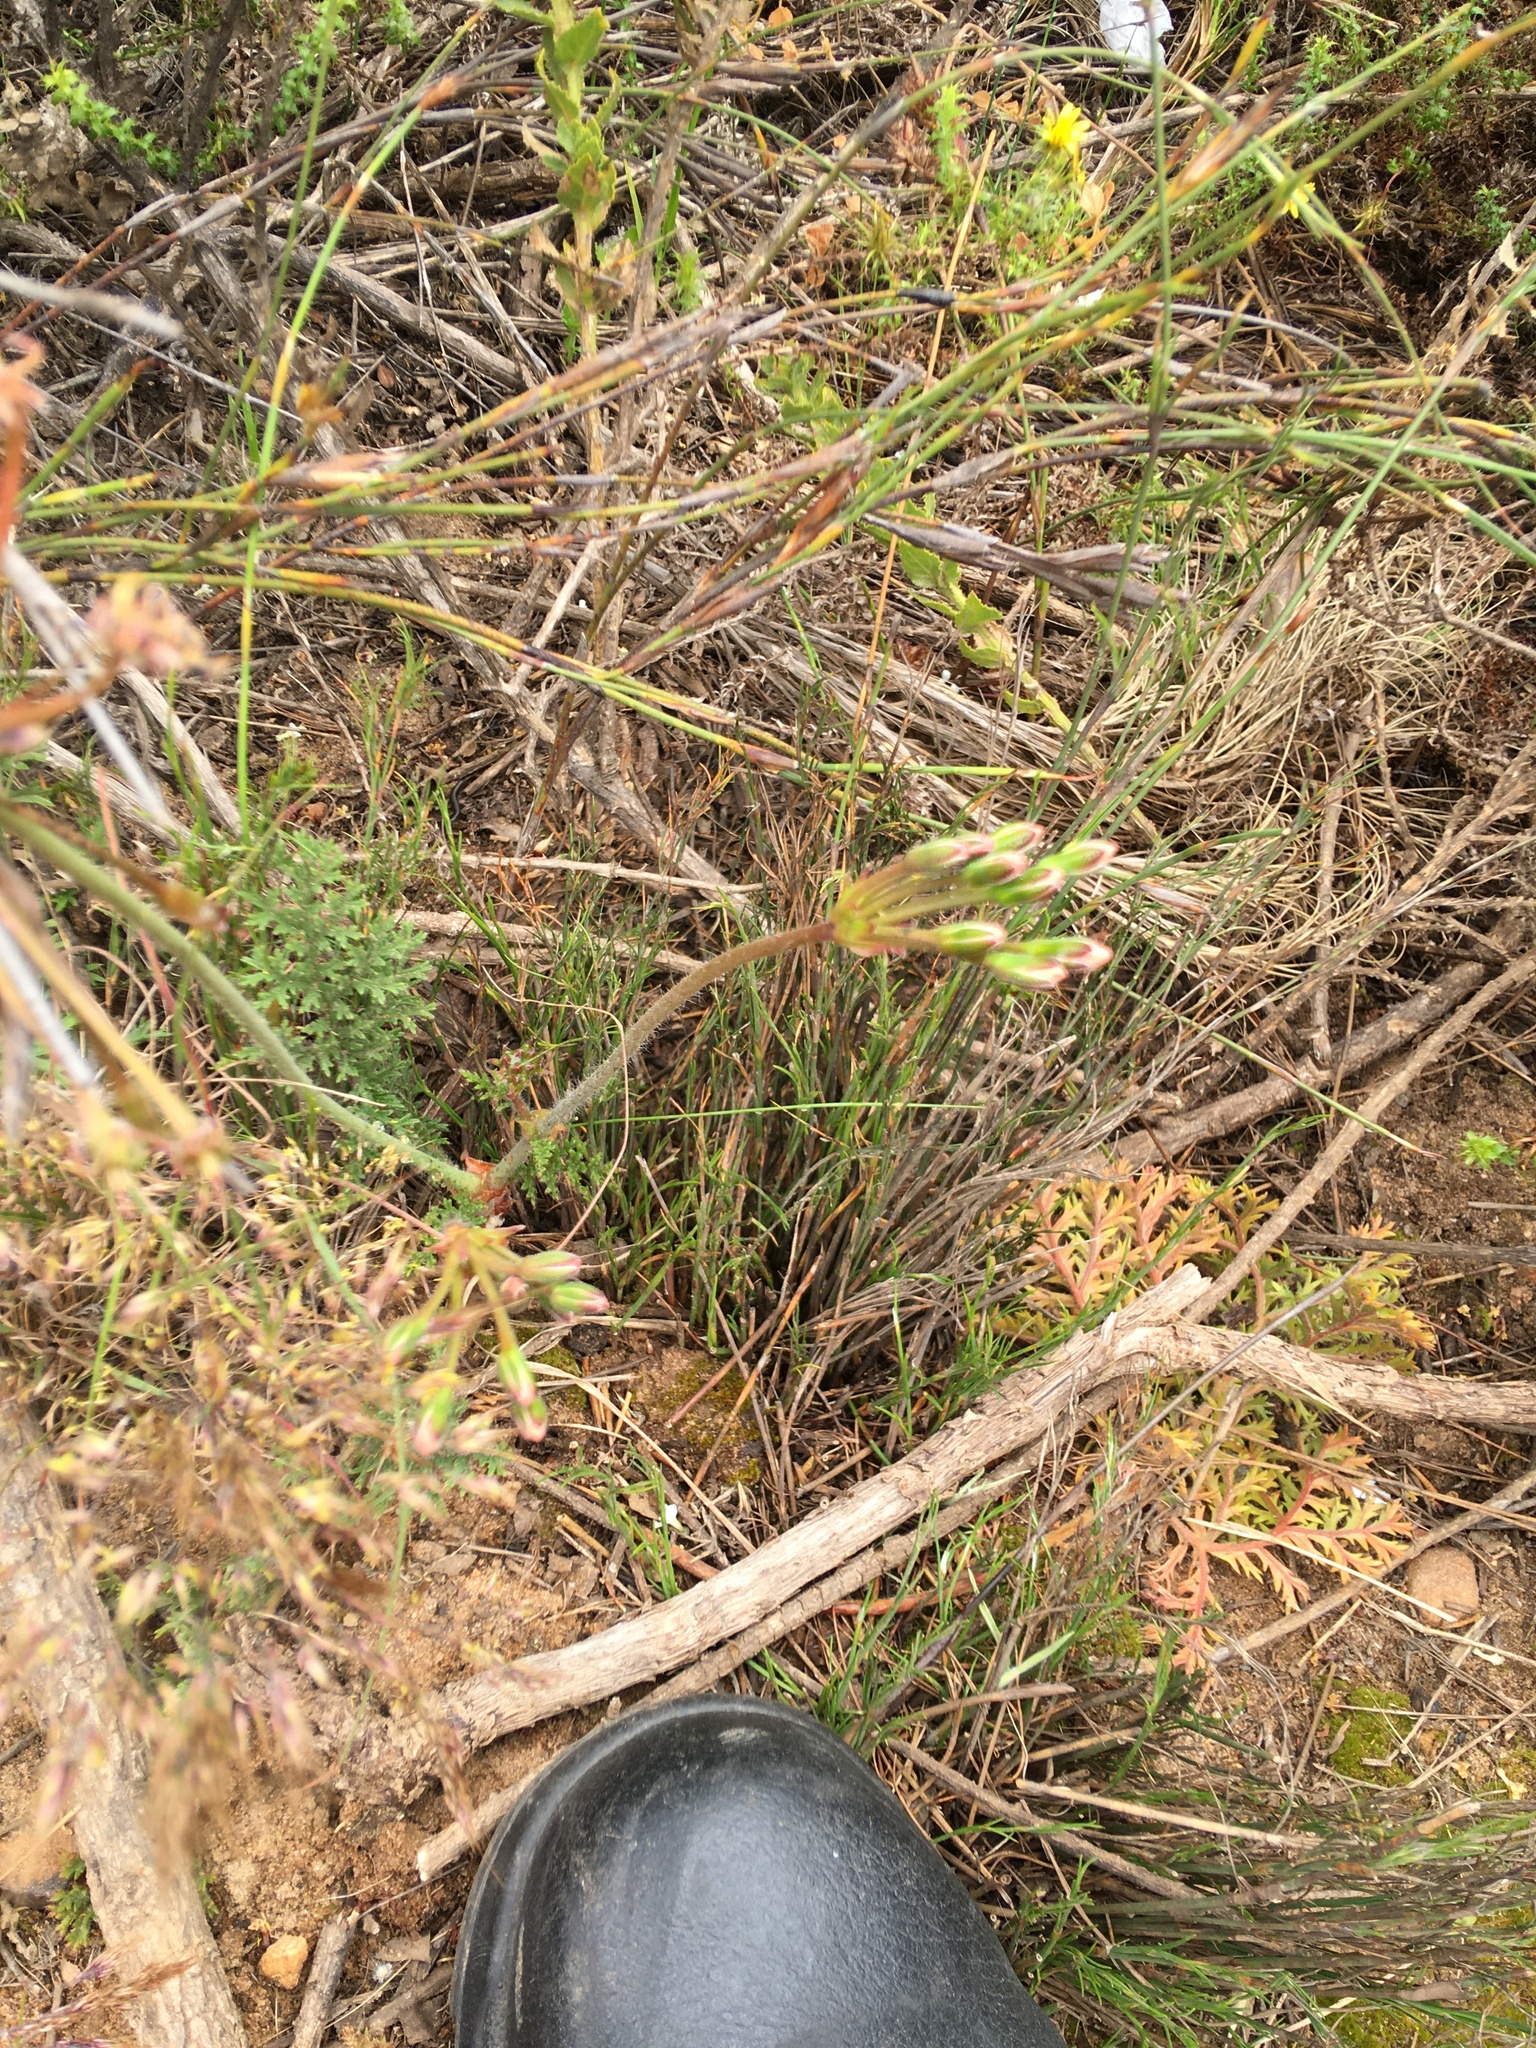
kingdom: Plantae
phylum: Tracheophyta
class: Magnoliopsida
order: Geraniales
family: Geraniaceae
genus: Pelargonium
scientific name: Pelargonium triste
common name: Night-scent pelargonium
